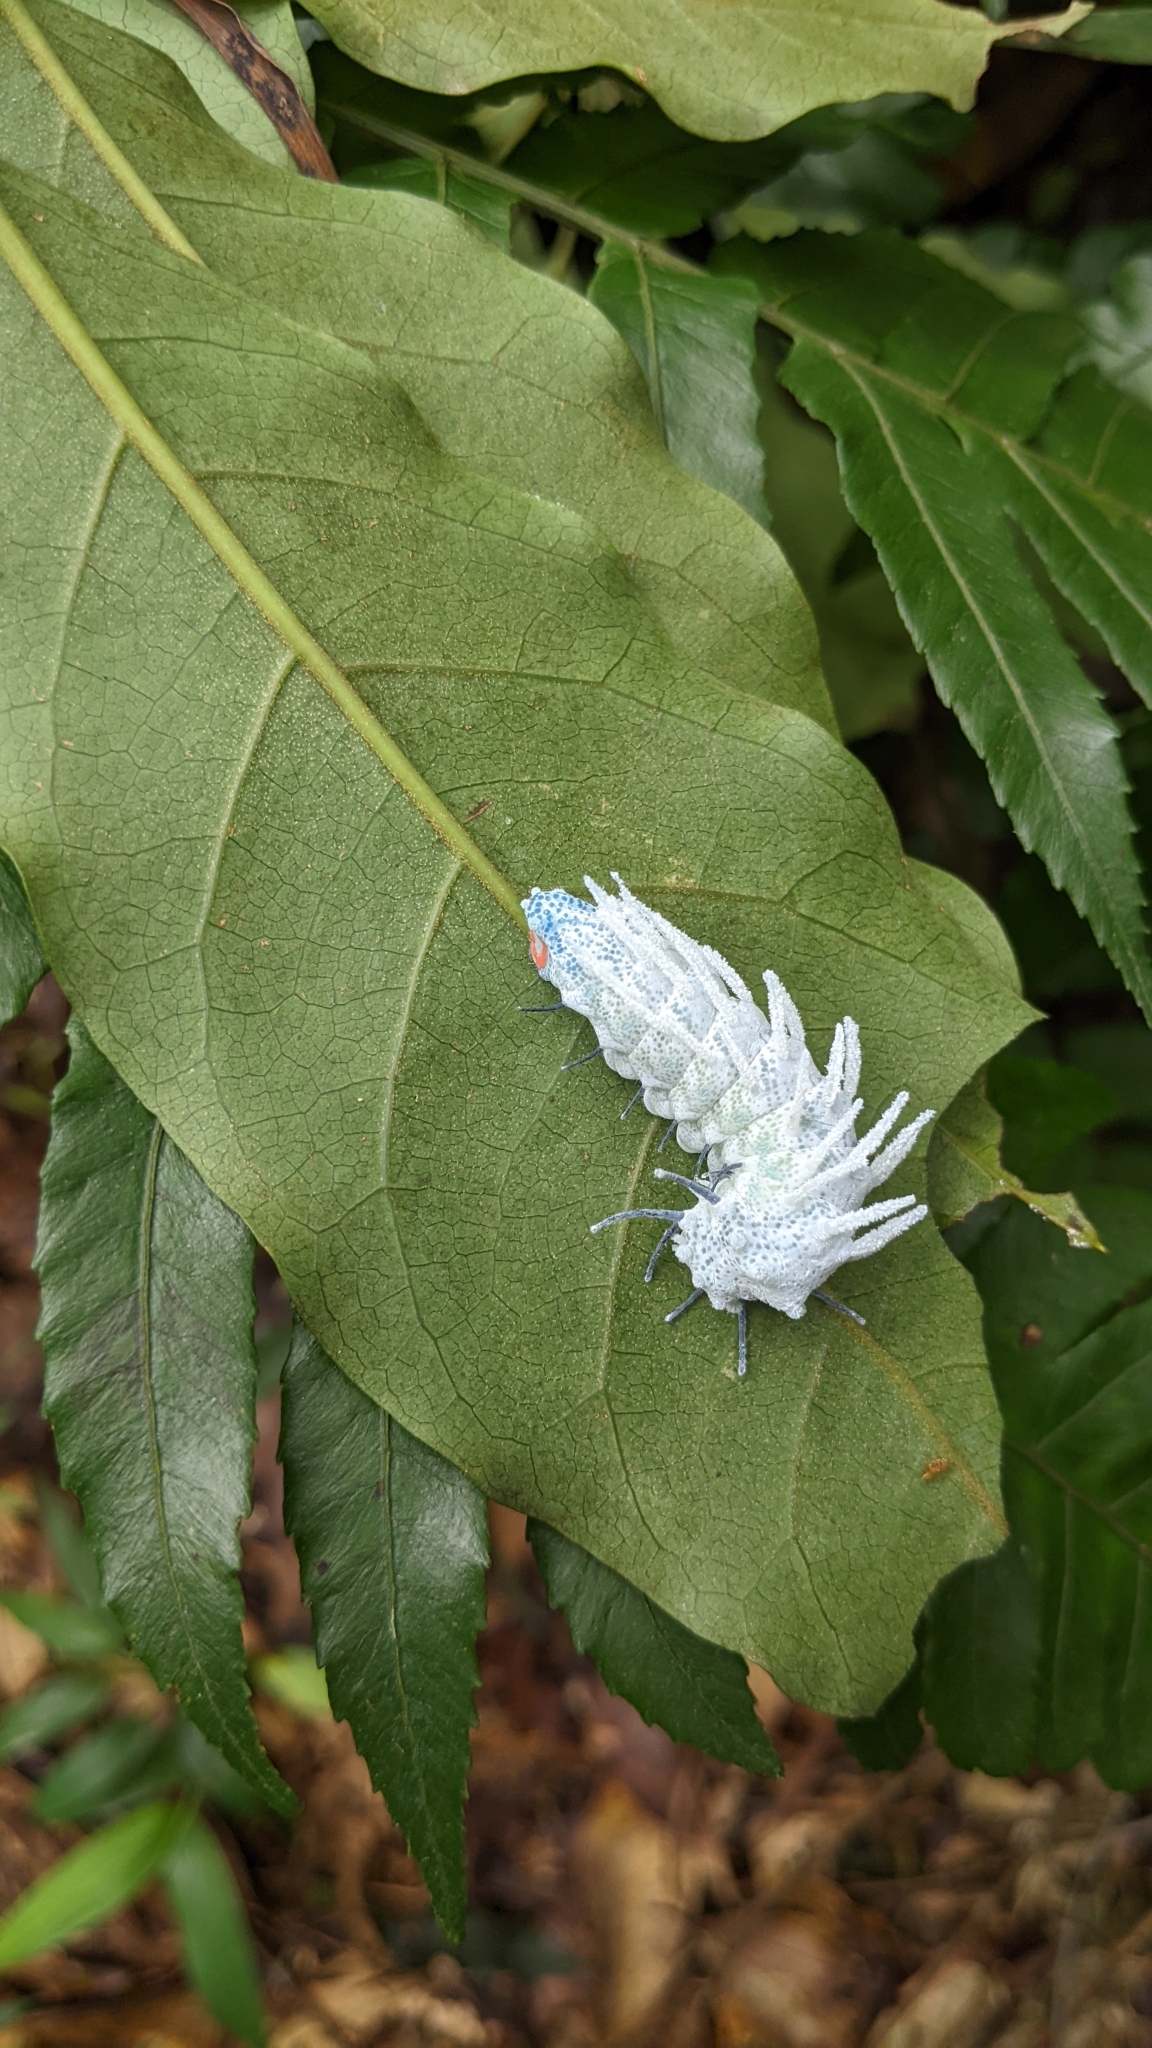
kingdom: Animalia
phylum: Arthropoda
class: Insecta
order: Lepidoptera
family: Saturniidae
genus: Attacus
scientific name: Attacus atlas
